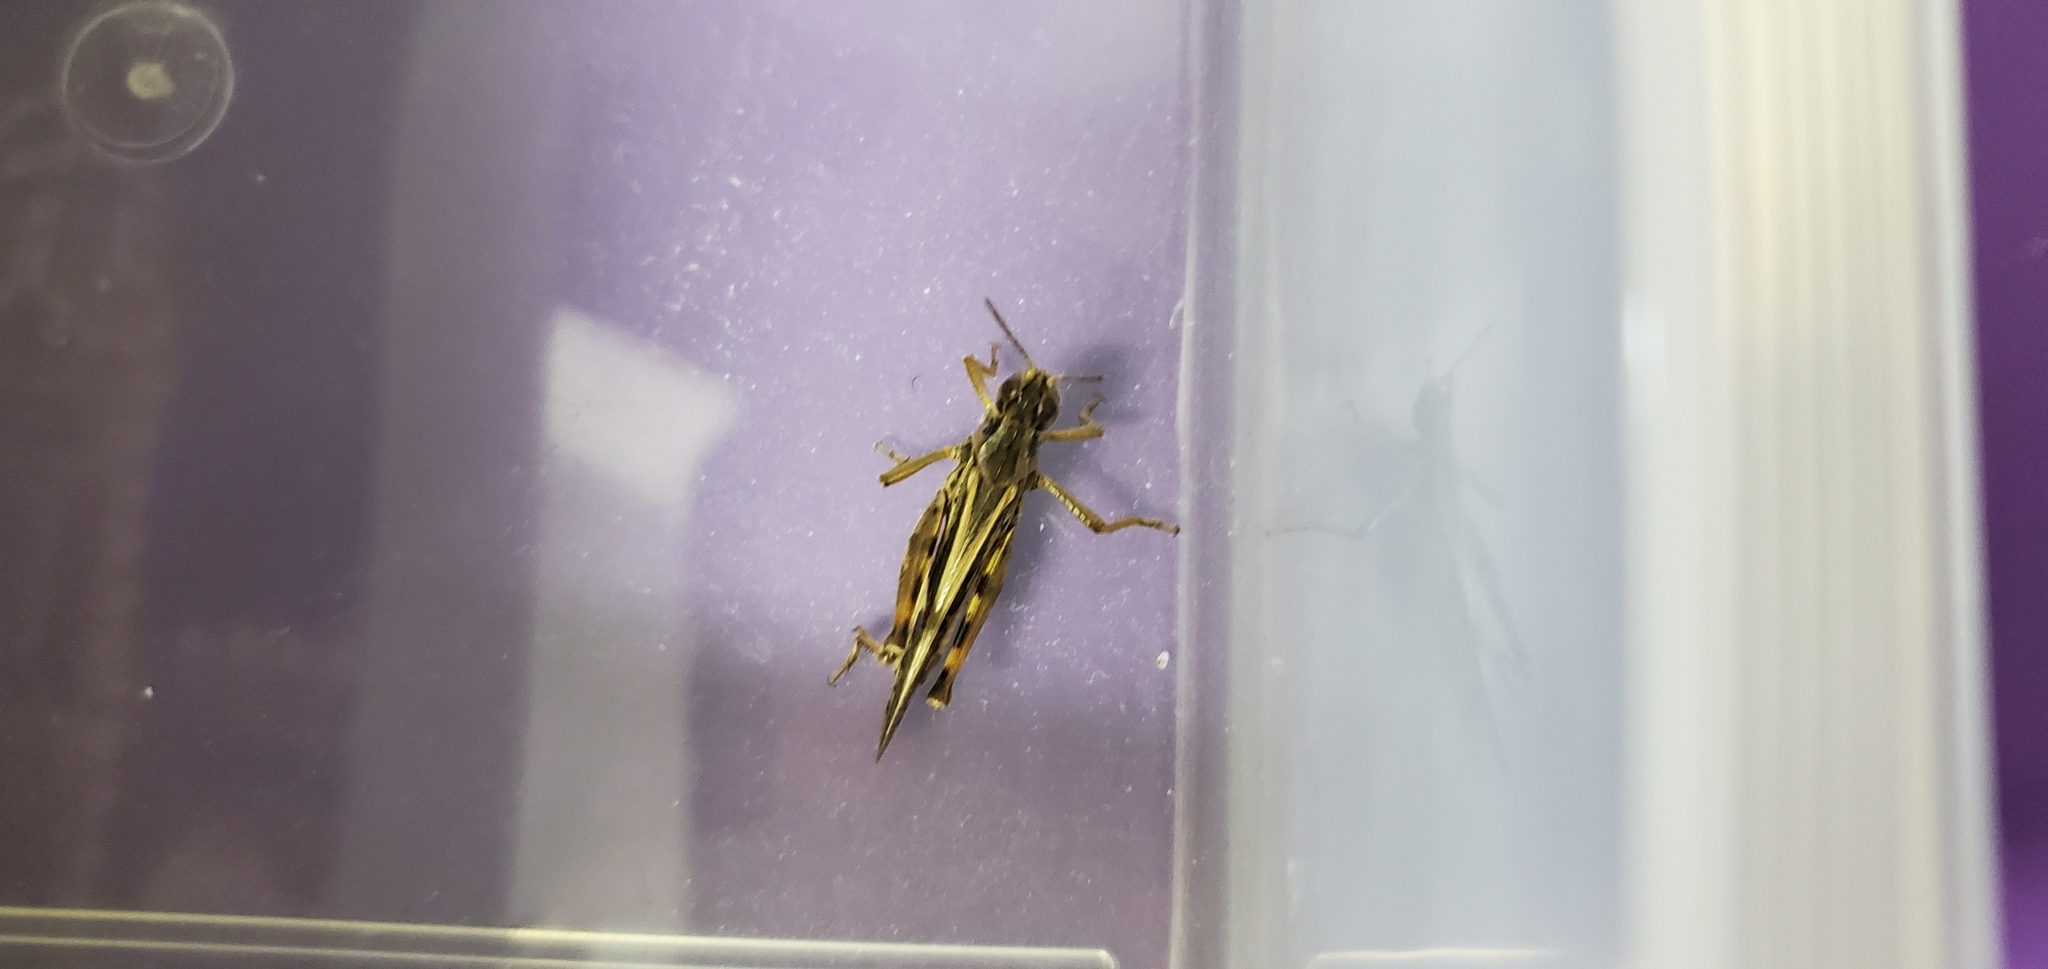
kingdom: Animalia
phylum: Arthropoda
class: Insecta
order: Orthoptera
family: Acrididae
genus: Camnula
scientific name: Camnula pellucida
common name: Clear-winged grasshopper
